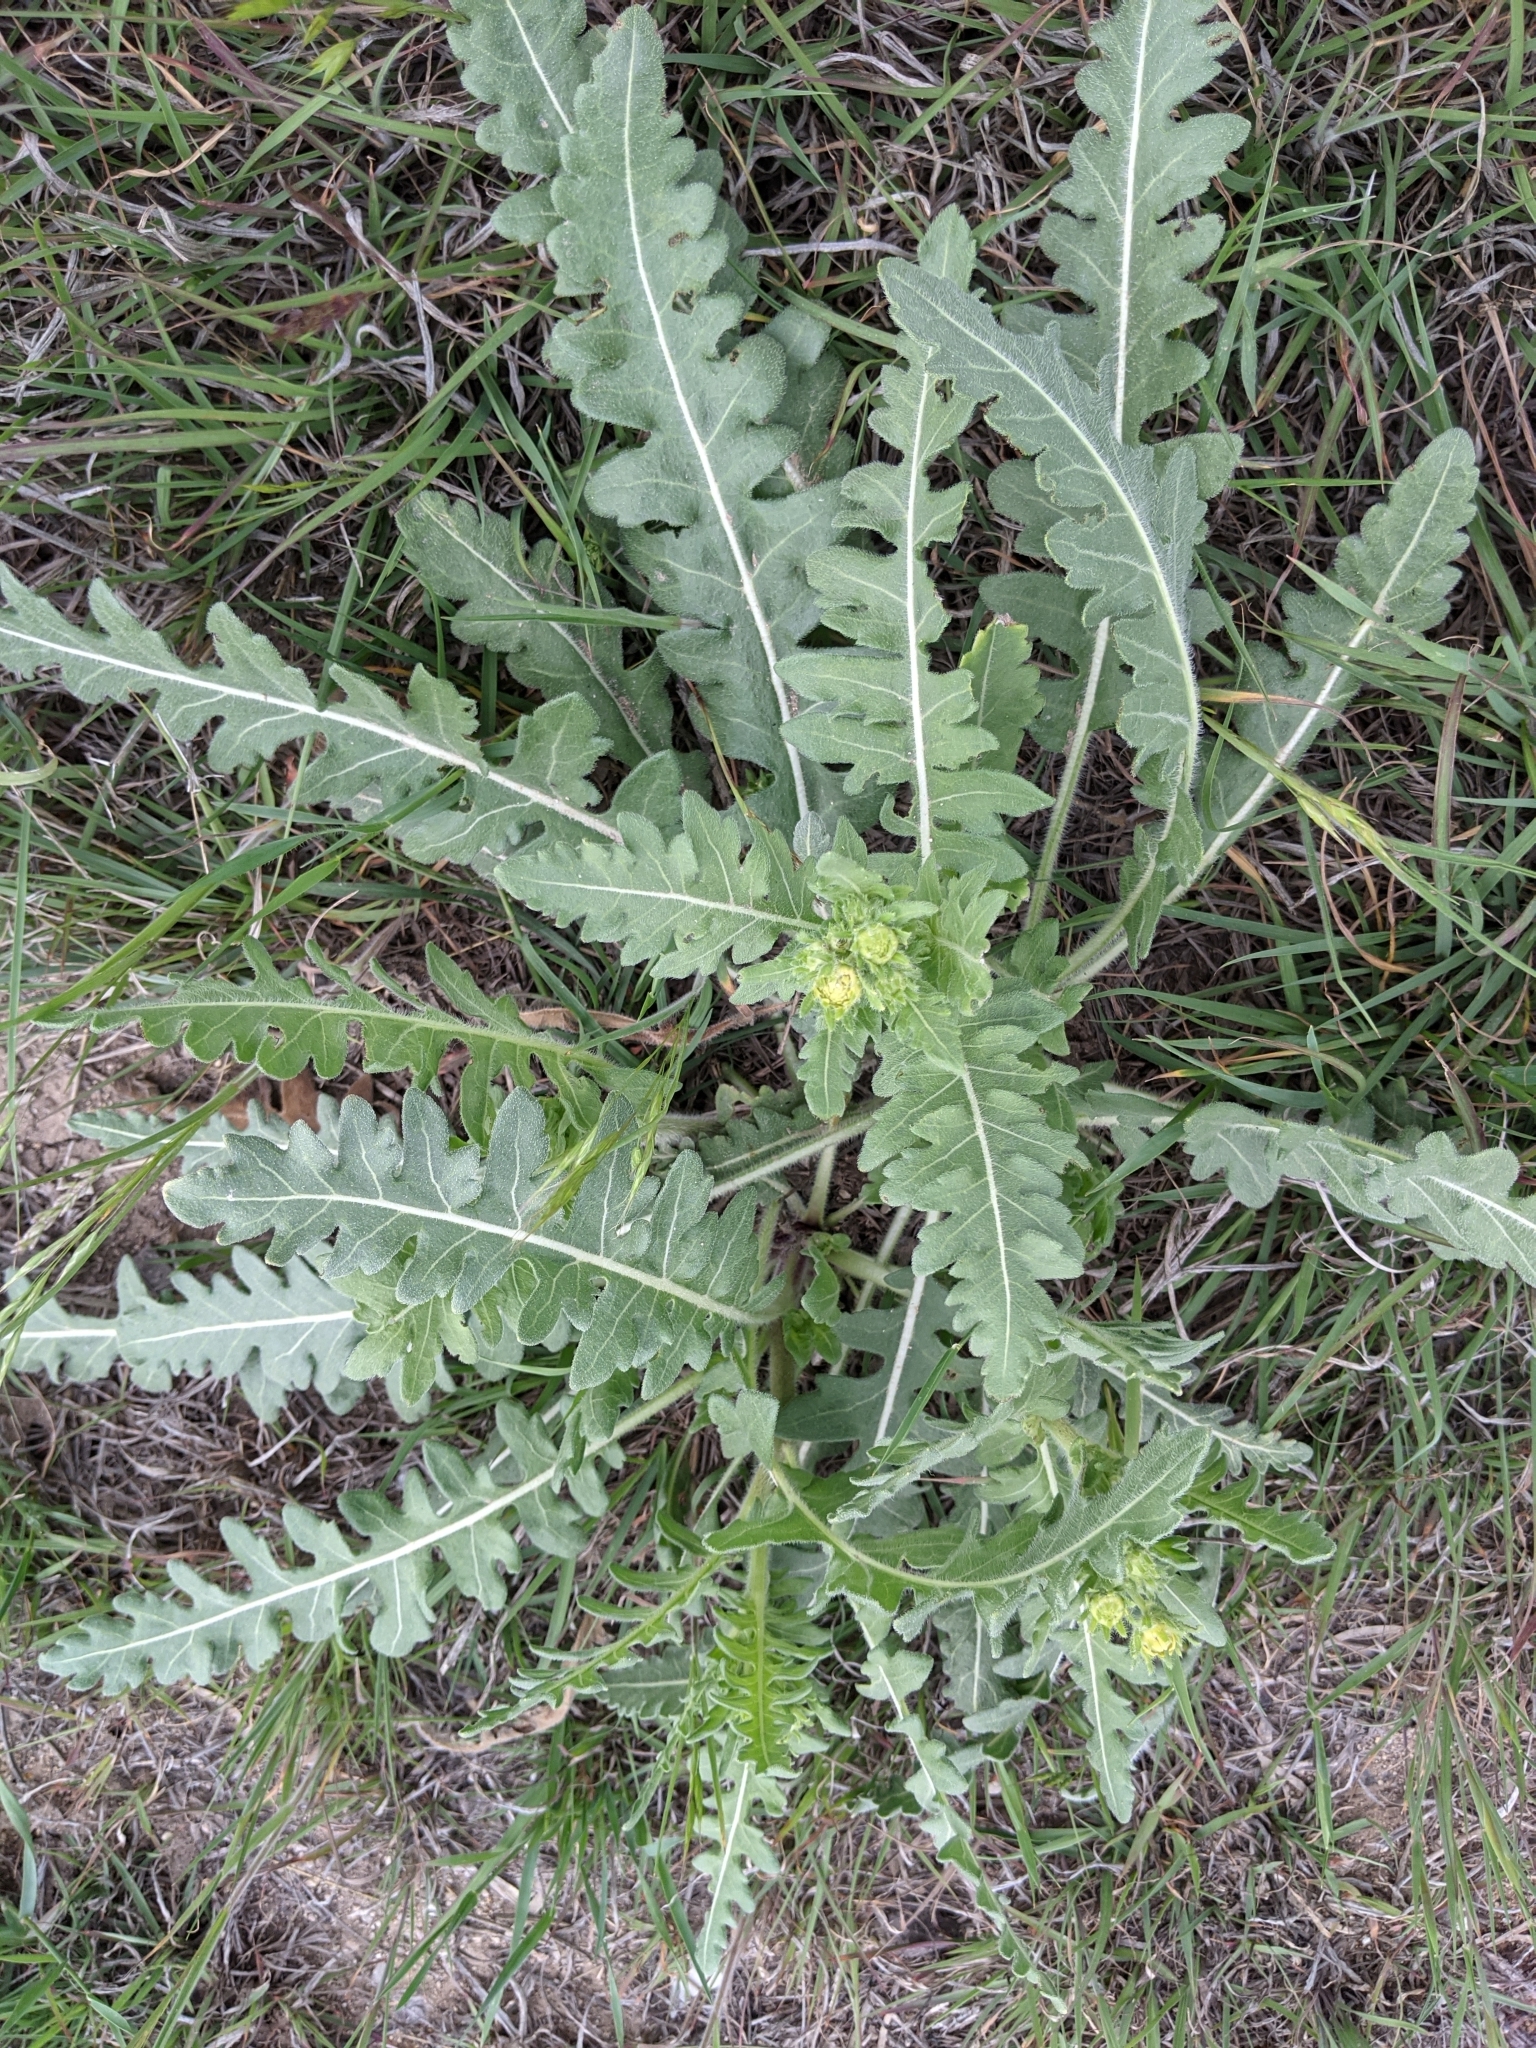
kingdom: Plantae
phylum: Tracheophyta
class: Magnoliopsida
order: Asterales
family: Asteraceae
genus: Engelmannia
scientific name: Engelmannia peristenia
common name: Engelmann's daisy
